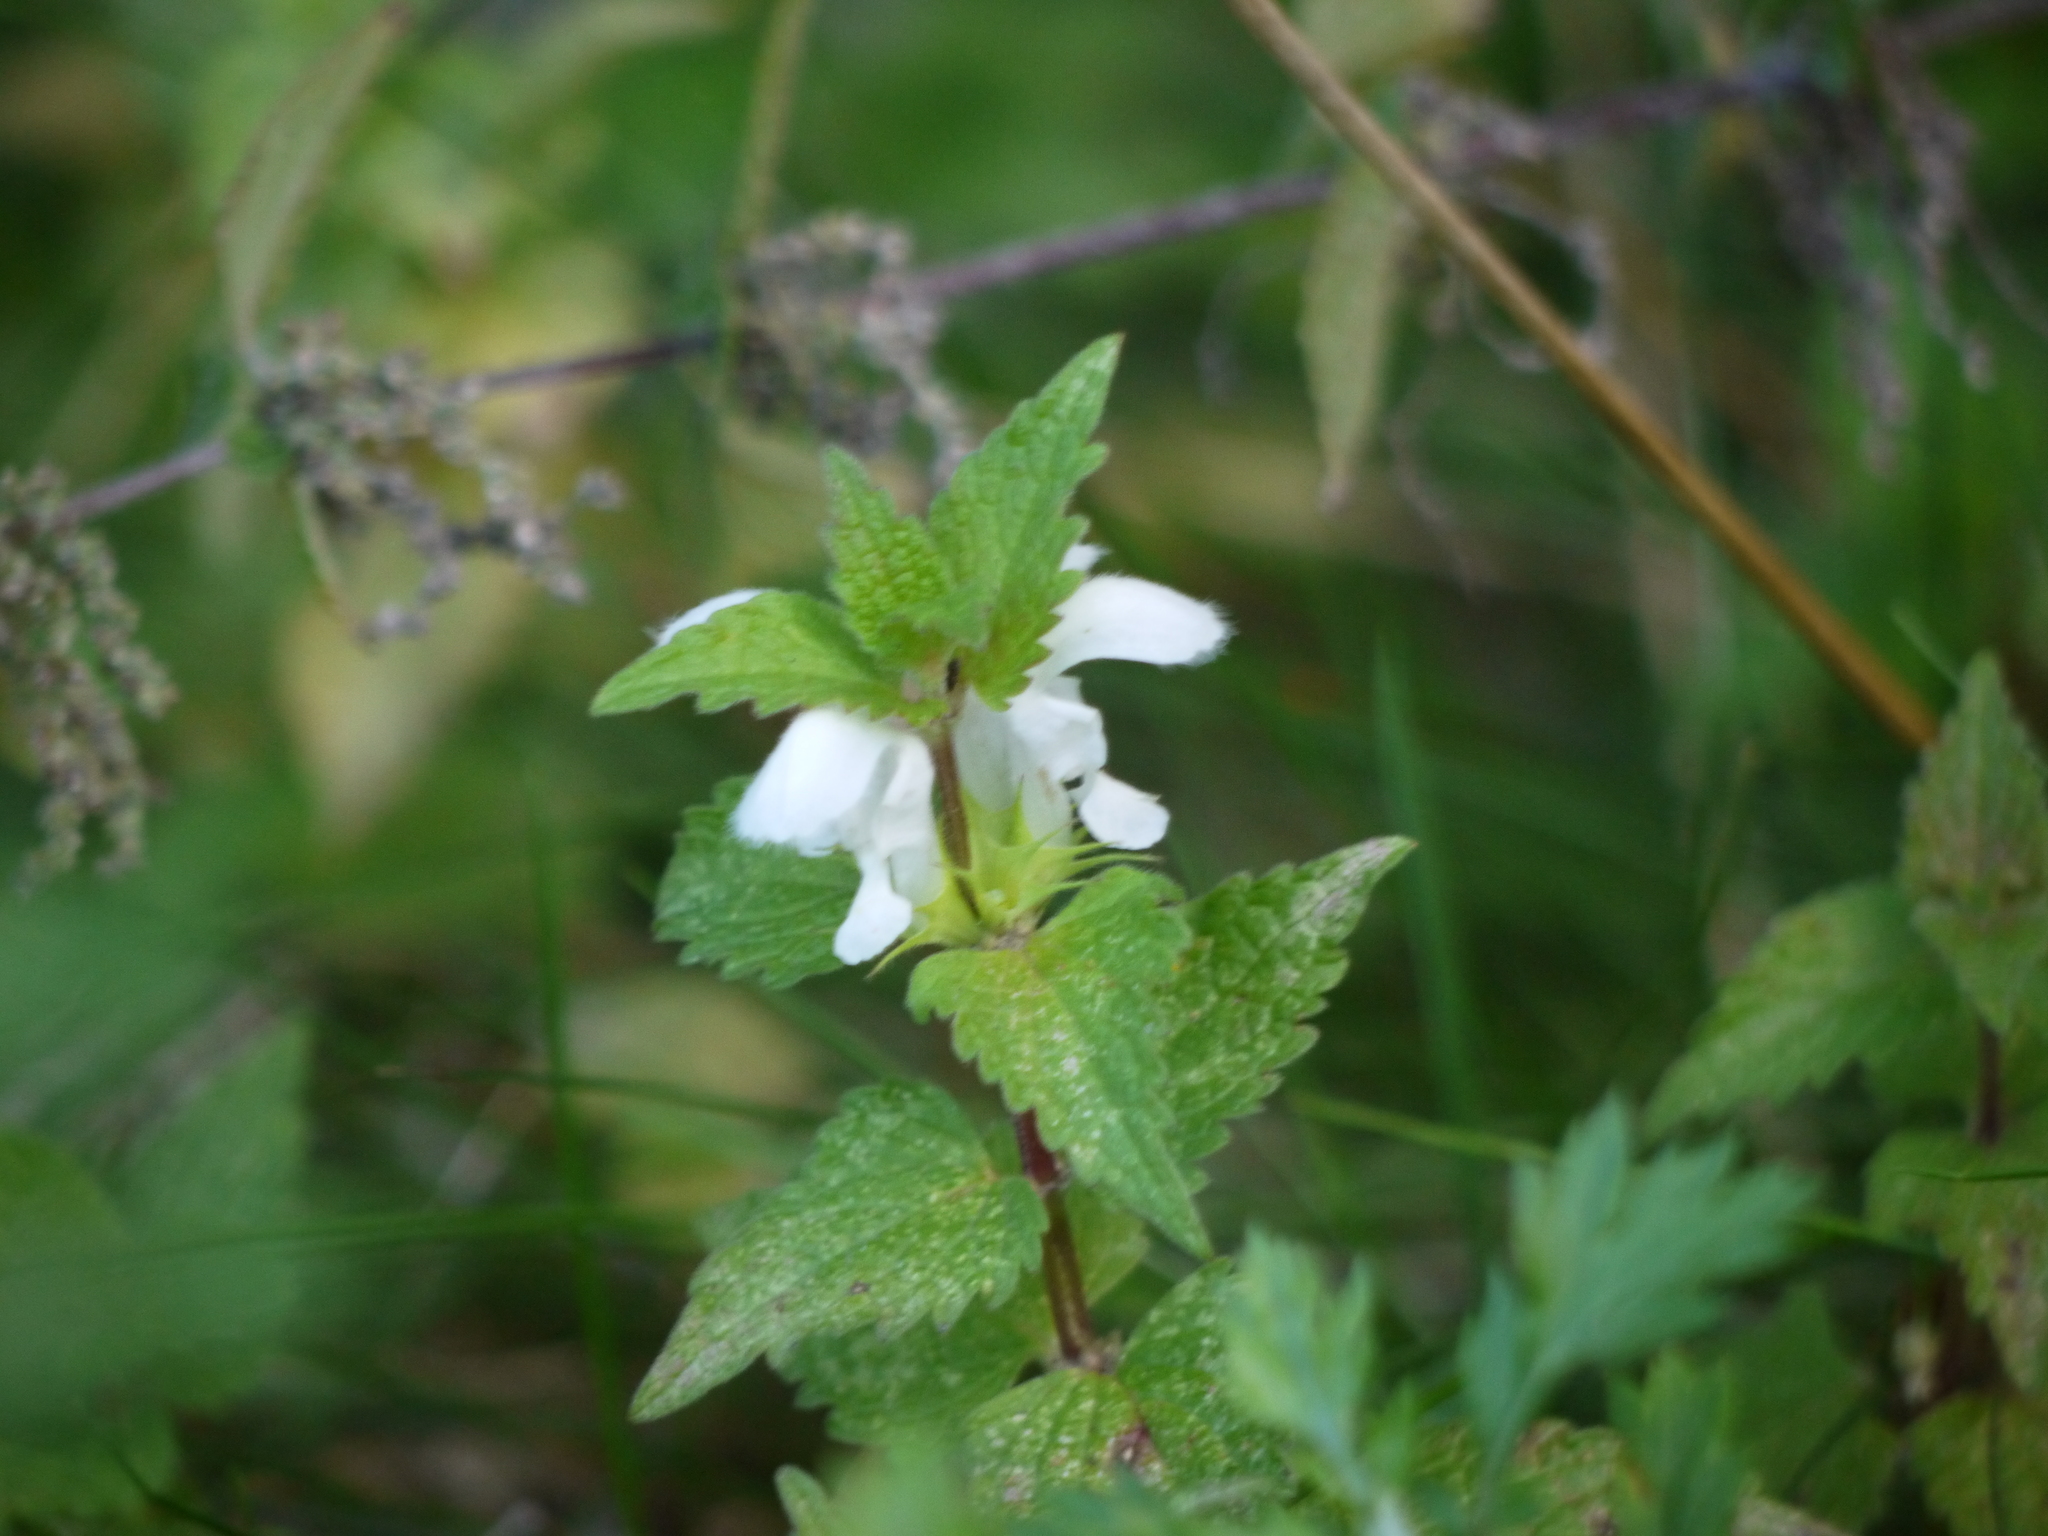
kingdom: Plantae
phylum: Tracheophyta
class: Magnoliopsida
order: Lamiales
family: Lamiaceae
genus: Lamium
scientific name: Lamium album
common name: White dead-nettle
